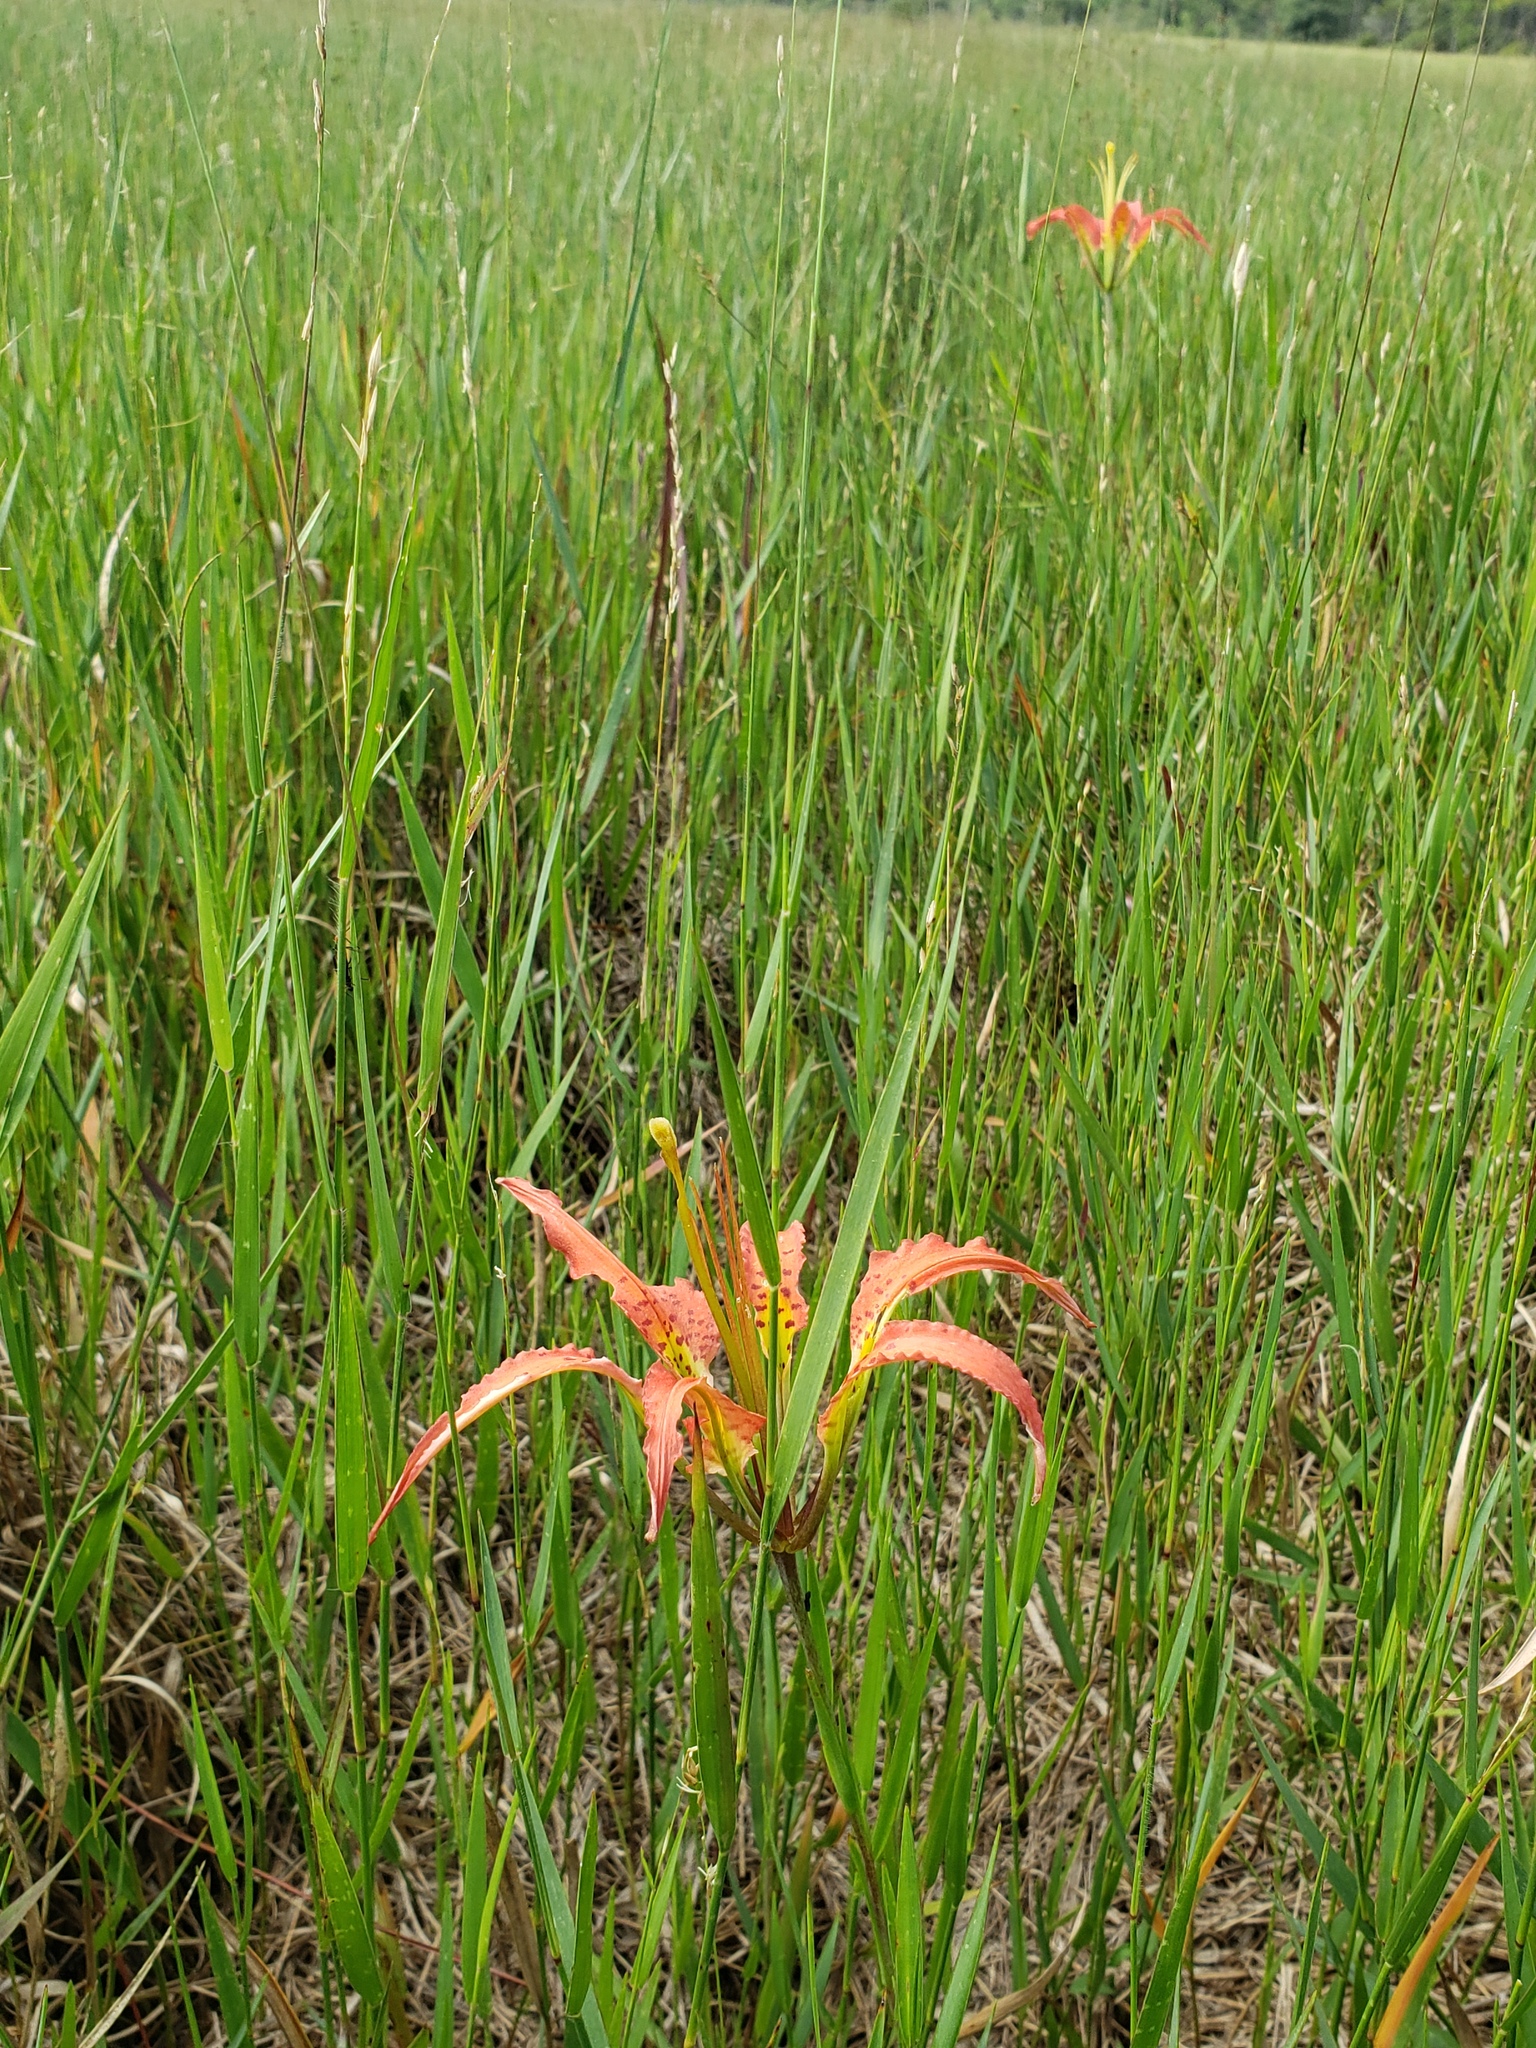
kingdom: Plantae
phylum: Tracheophyta
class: Liliopsida
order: Liliales
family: Liliaceae
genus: Lilium
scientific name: Lilium catesbaei
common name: Catesby's lily
